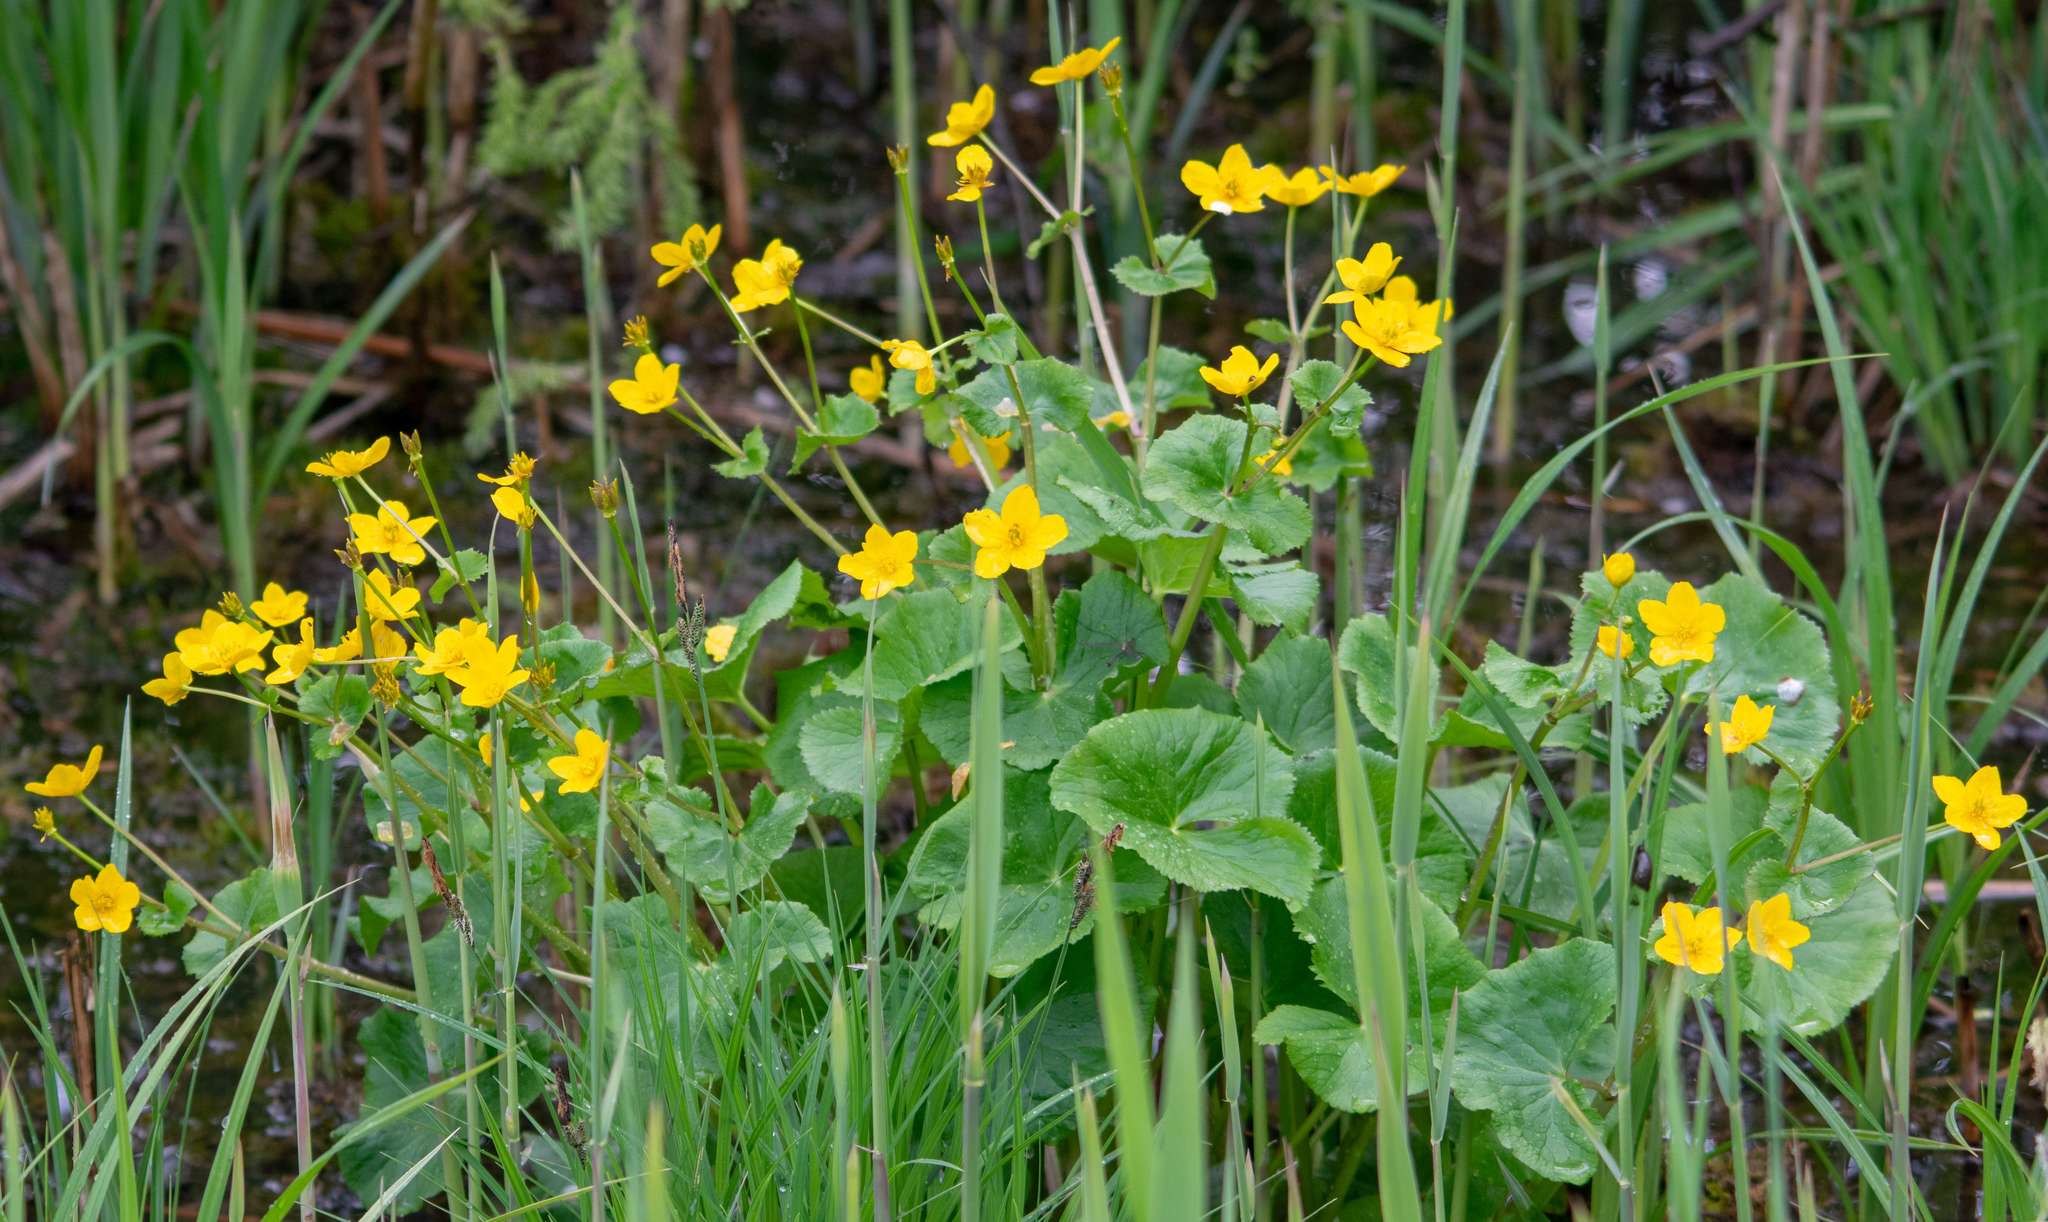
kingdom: Plantae
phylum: Tracheophyta
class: Magnoliopsida
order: Ranunculales
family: Ranunculaceae
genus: Caltha
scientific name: Caltha palustris
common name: Marsh marigold
